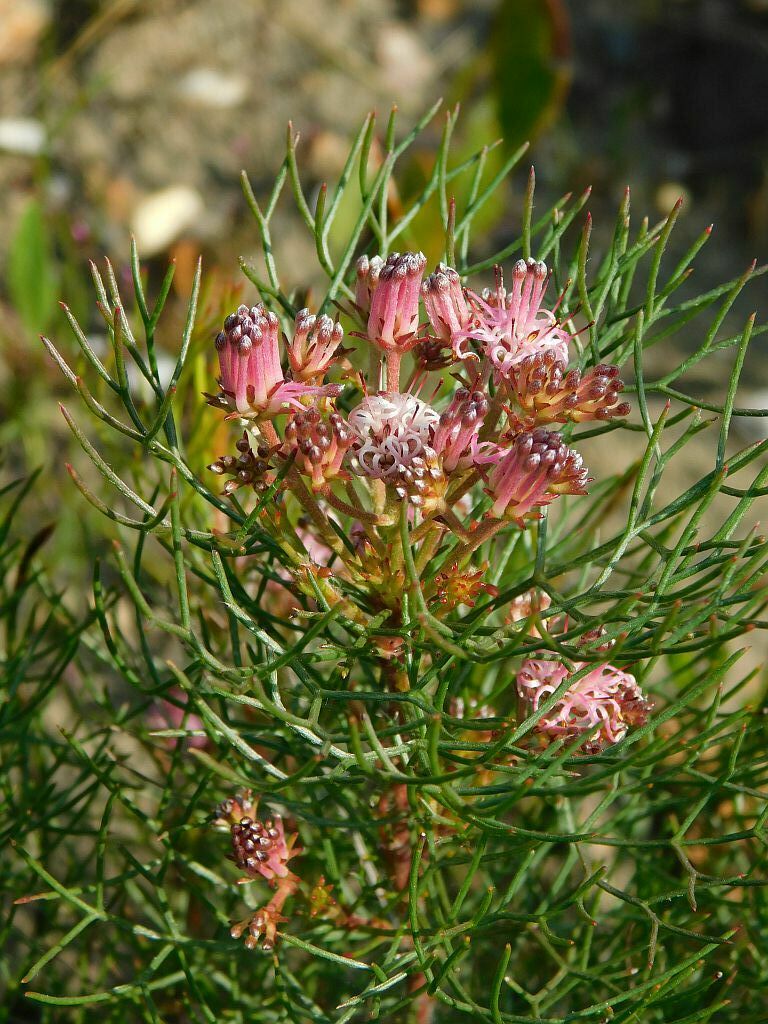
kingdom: Plantae
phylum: Tracheophyta
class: Magnoliopsida
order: Proteales
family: Proteaceae
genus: Serruria
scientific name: Serruria fasciflora
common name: Common pin spiderhead
